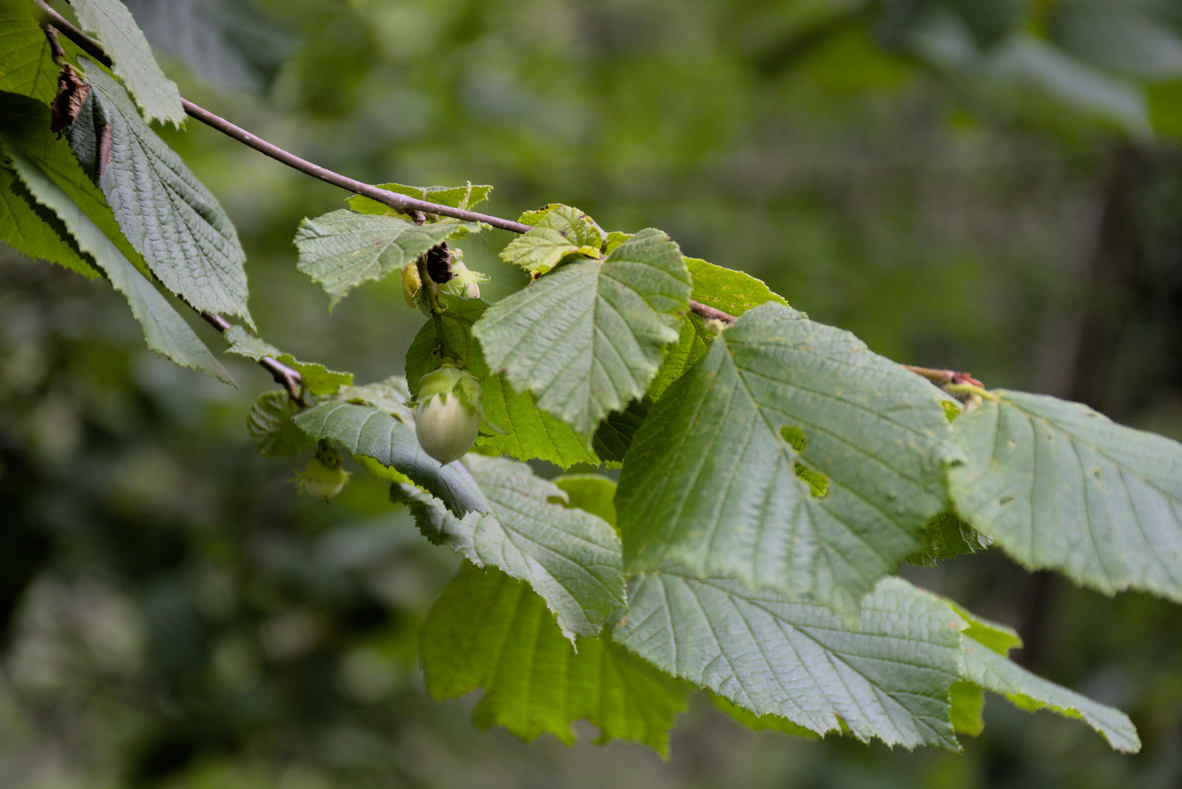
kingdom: Plantae
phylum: Tracheophyta
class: Magnoliopsida
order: Fagales
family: Betulaceae
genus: Corylus
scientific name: Corylus avellana
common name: European hazel
